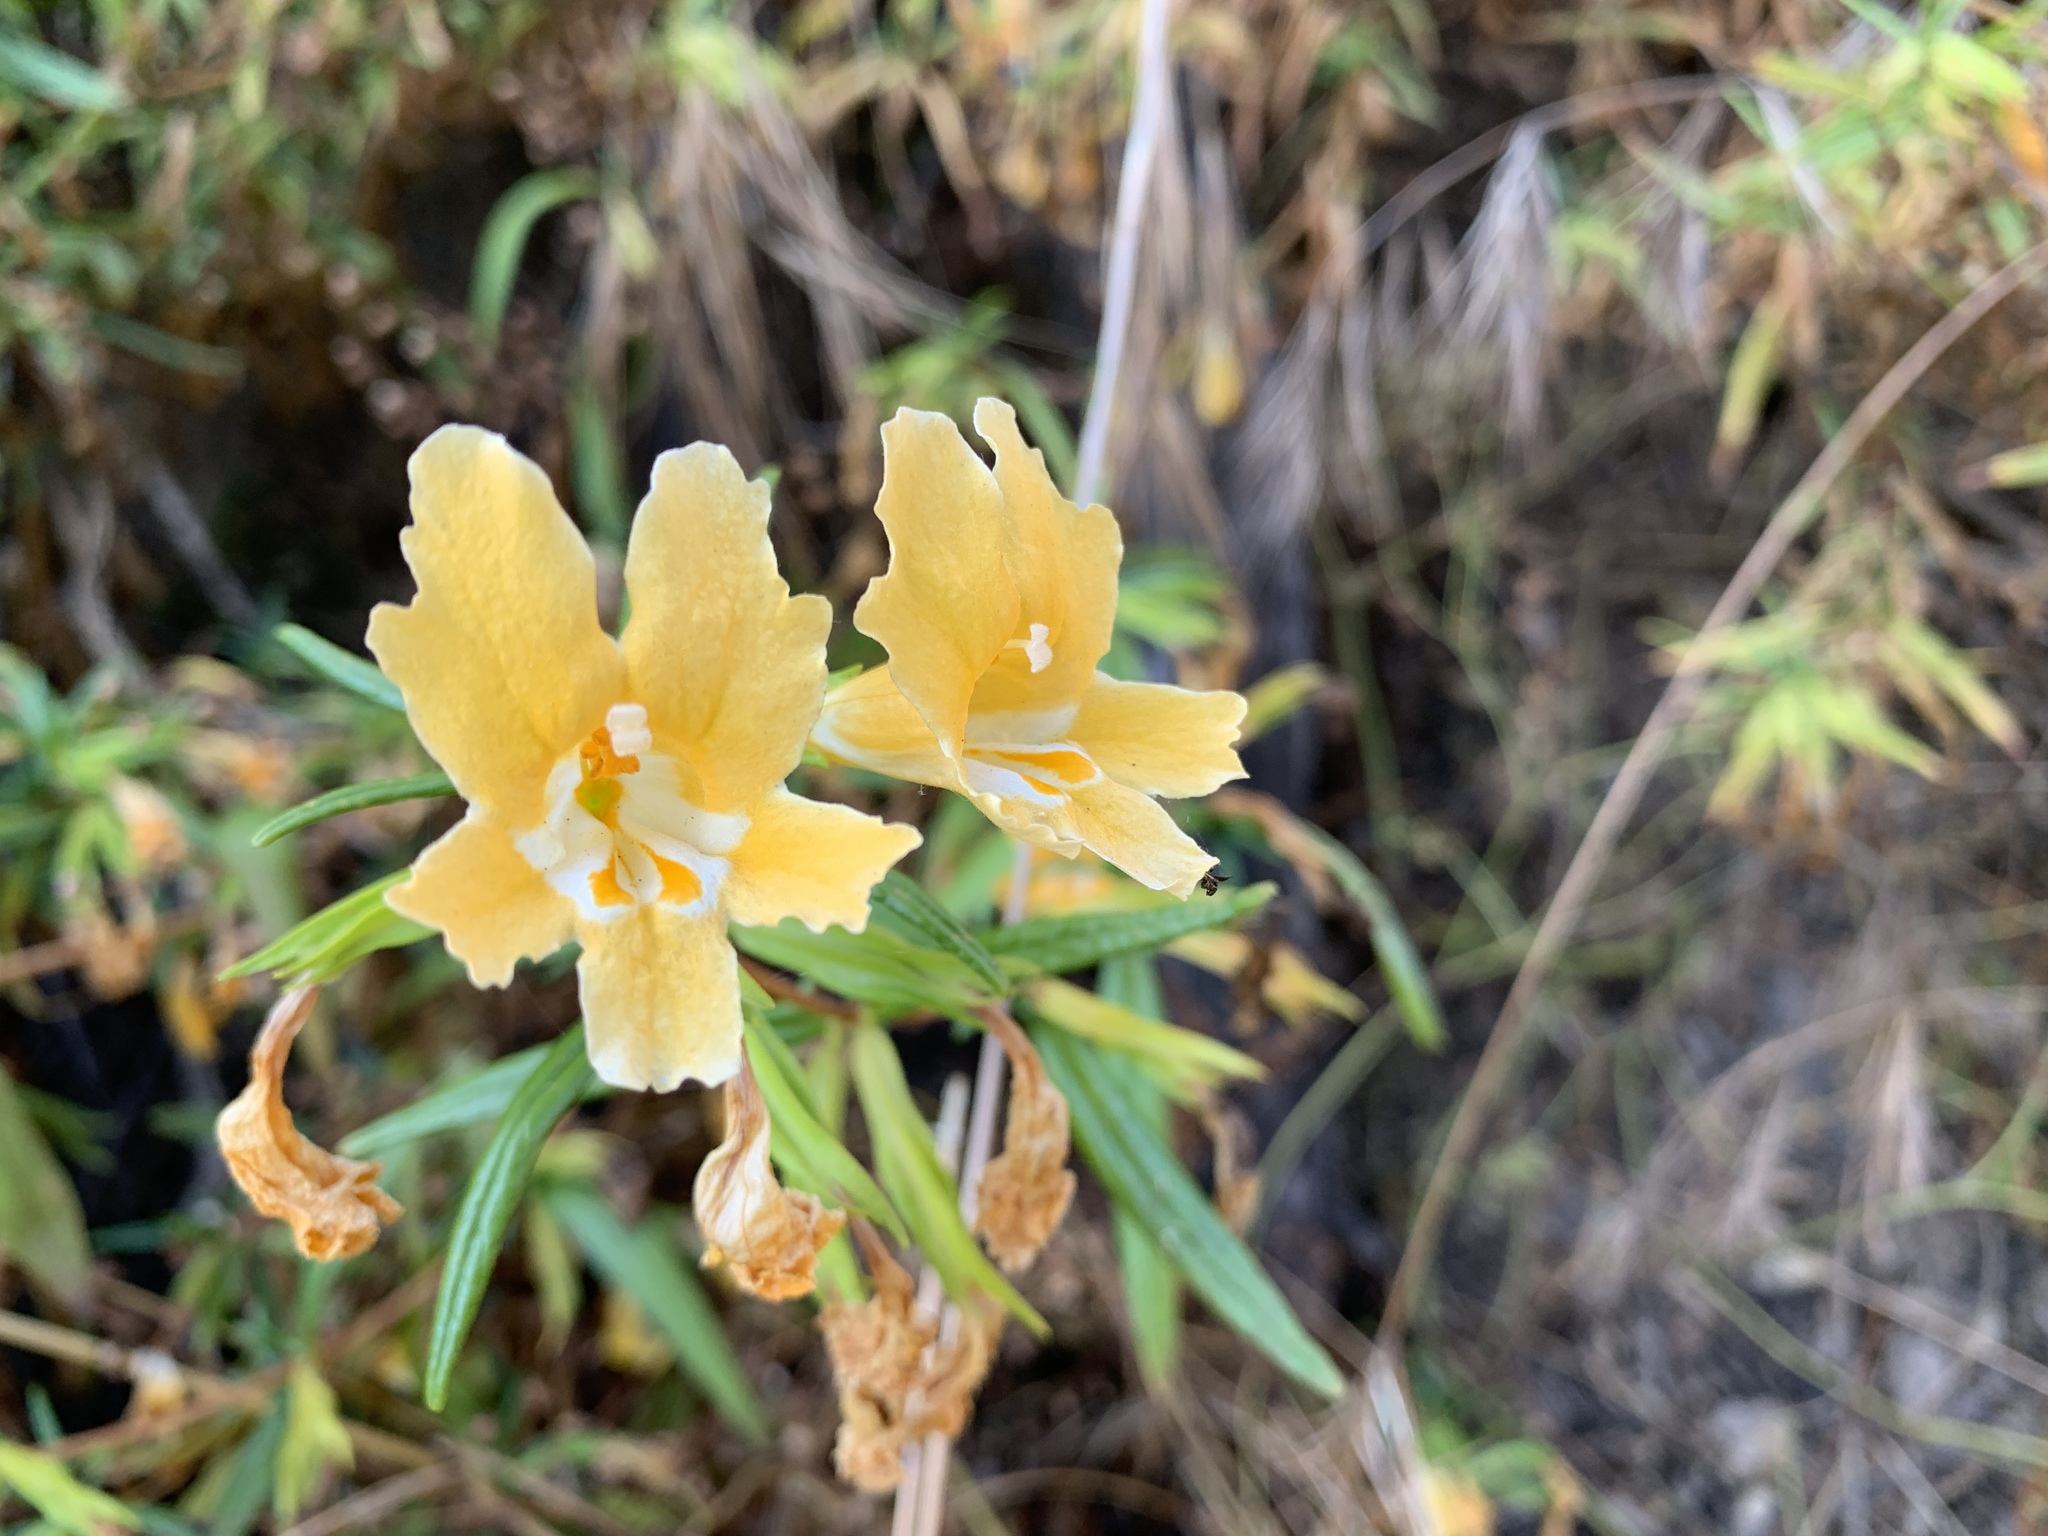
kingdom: Plantae
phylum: Tracheophyta
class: Magnoliopsida
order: Lamiales
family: Phrymaceae
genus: Diplacus
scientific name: Diplacus longiflorus
